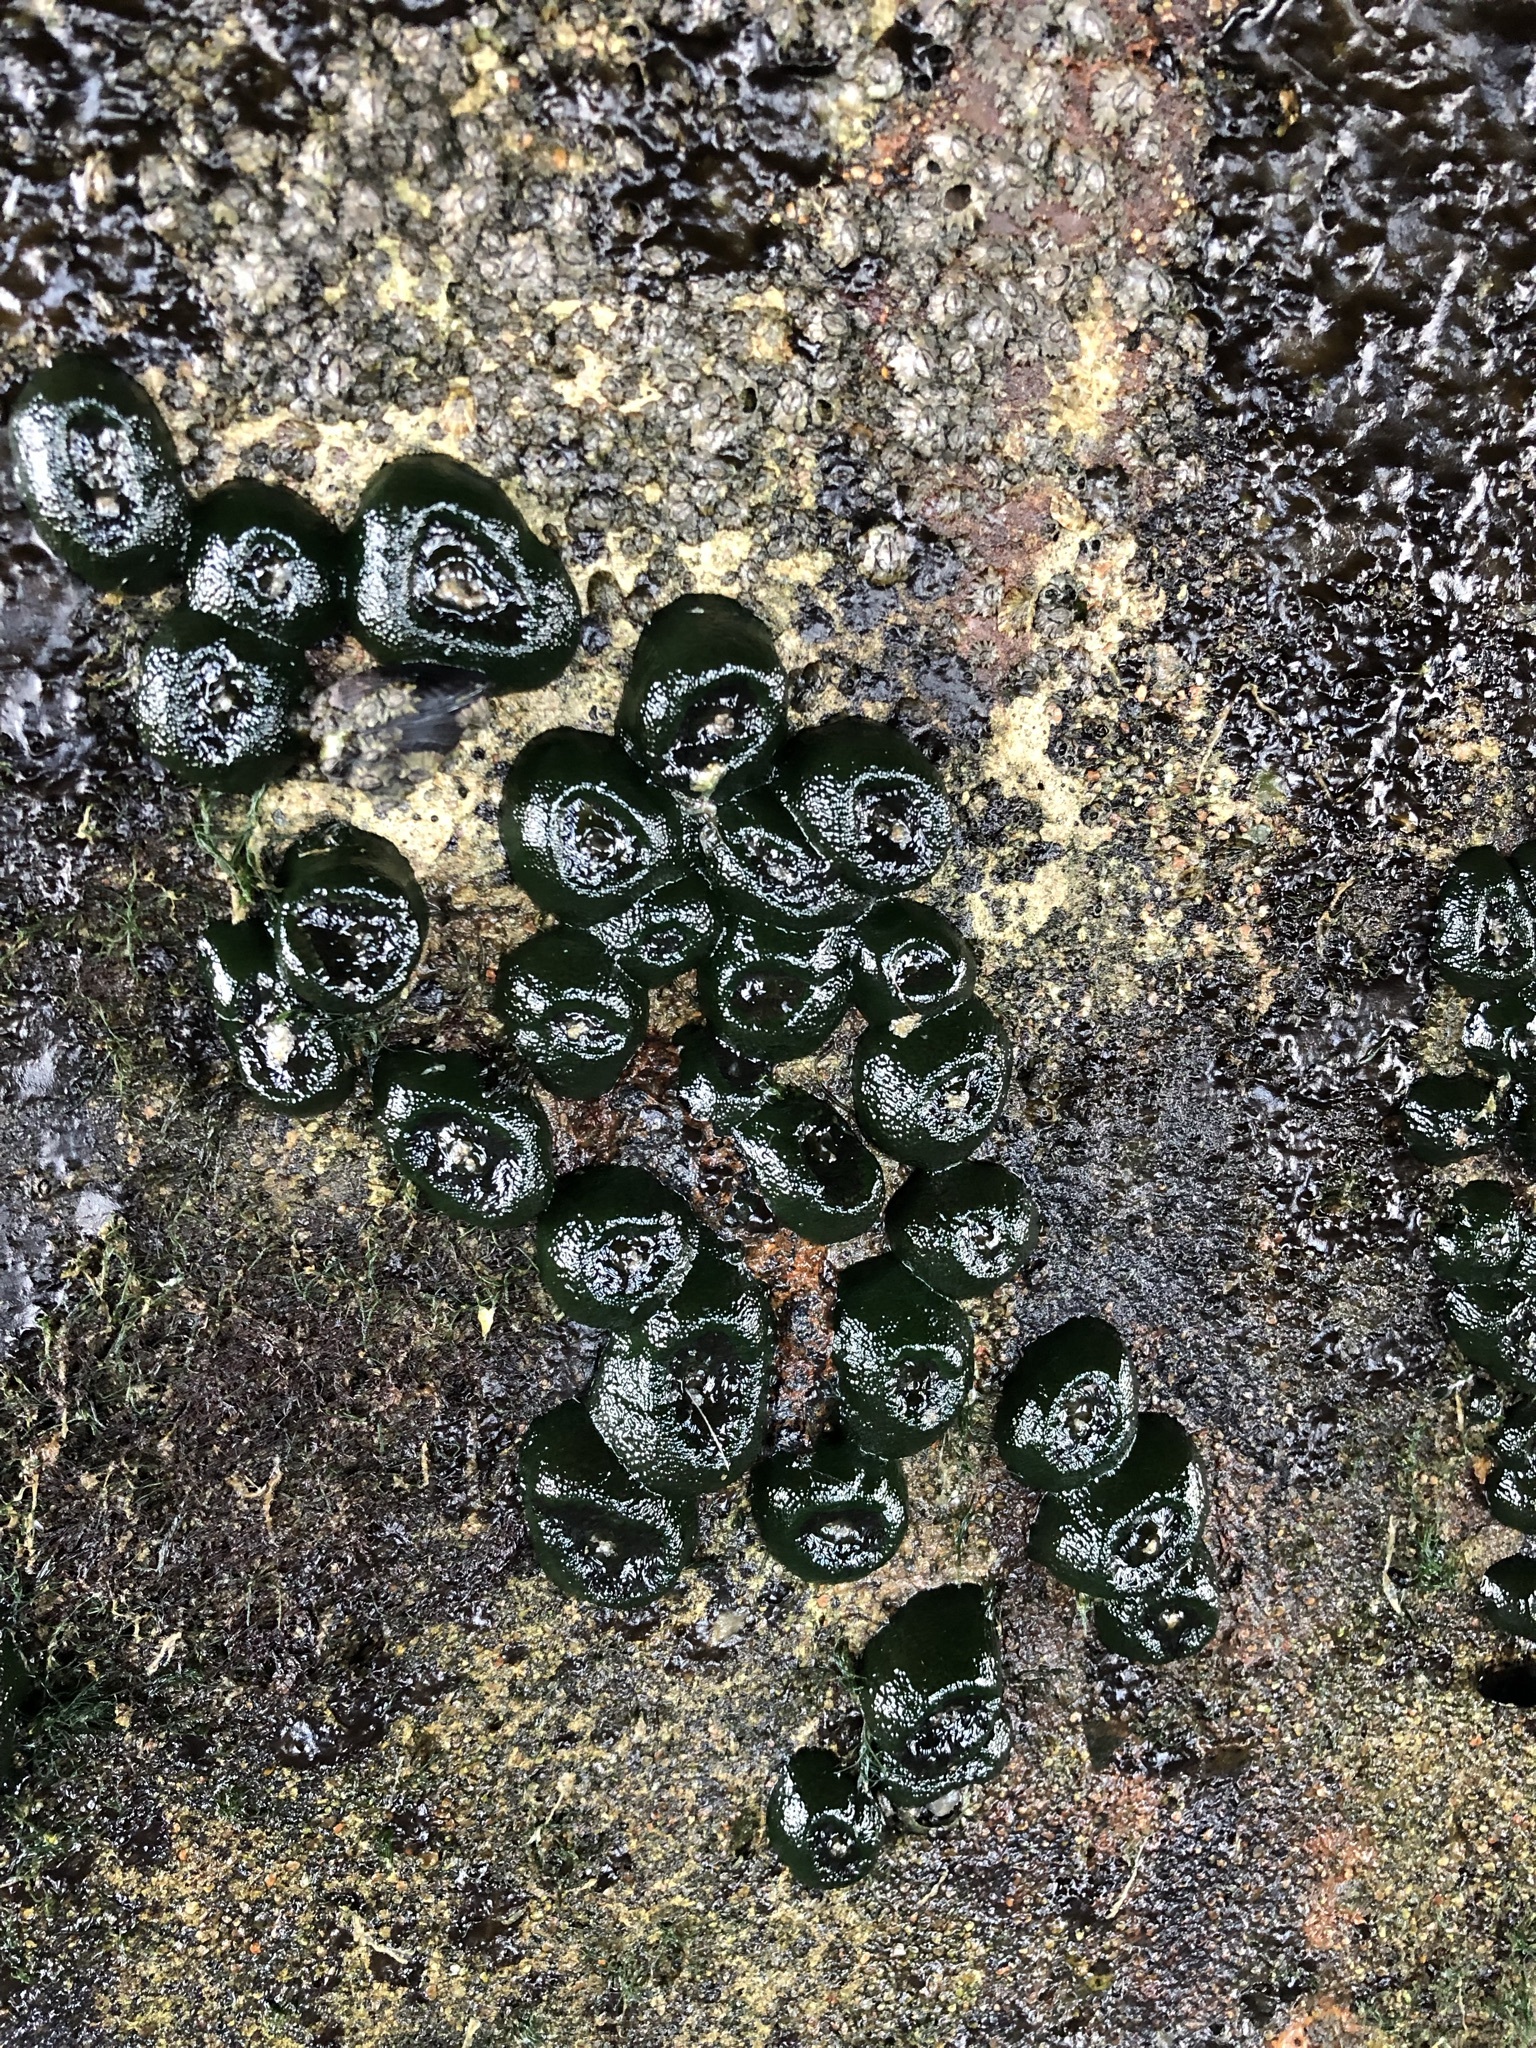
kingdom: Animalia
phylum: Cnidaria
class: Anthozoa
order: Actiniaria
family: Actiniidae
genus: Phymactis
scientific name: Phymactis papillosa
